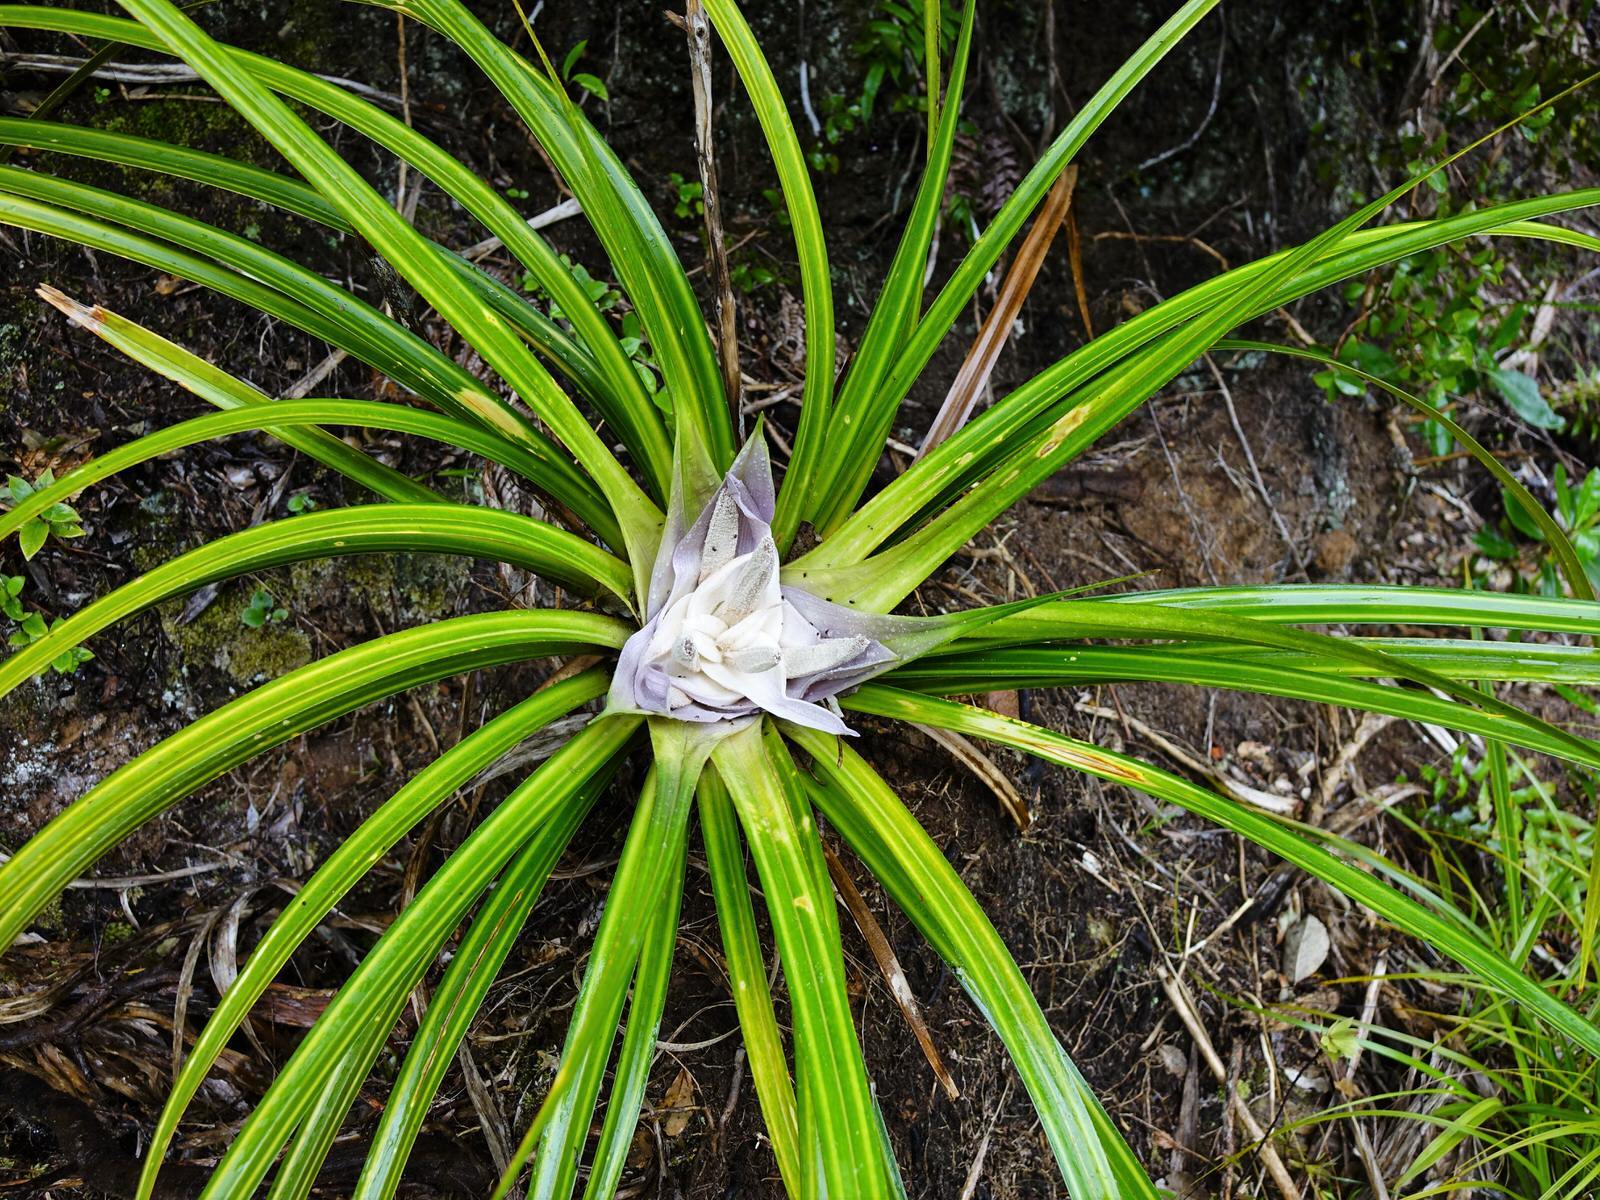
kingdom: Plantae
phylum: Tracheophyta
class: Liliopsida
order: Pandanales
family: Pandanaceae
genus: Freycinetia
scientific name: Freycinetia banksii
